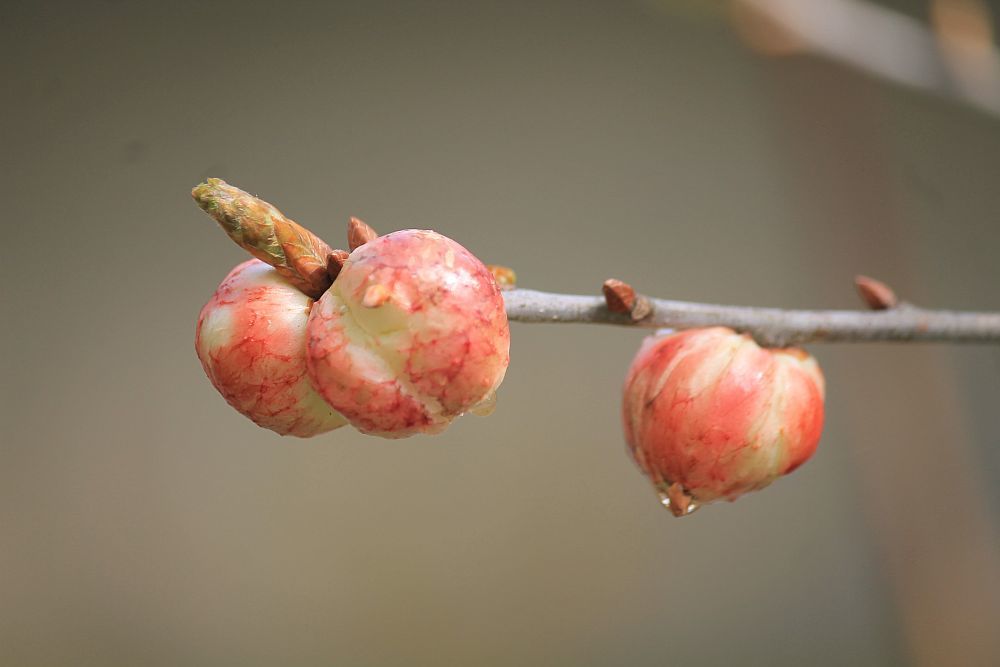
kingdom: Animalia
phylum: Arthropoda
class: Insecta
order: Hymenoptera
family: Cynipidae
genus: Biorhiza
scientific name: Biorhiza pallida
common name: Oak apple
